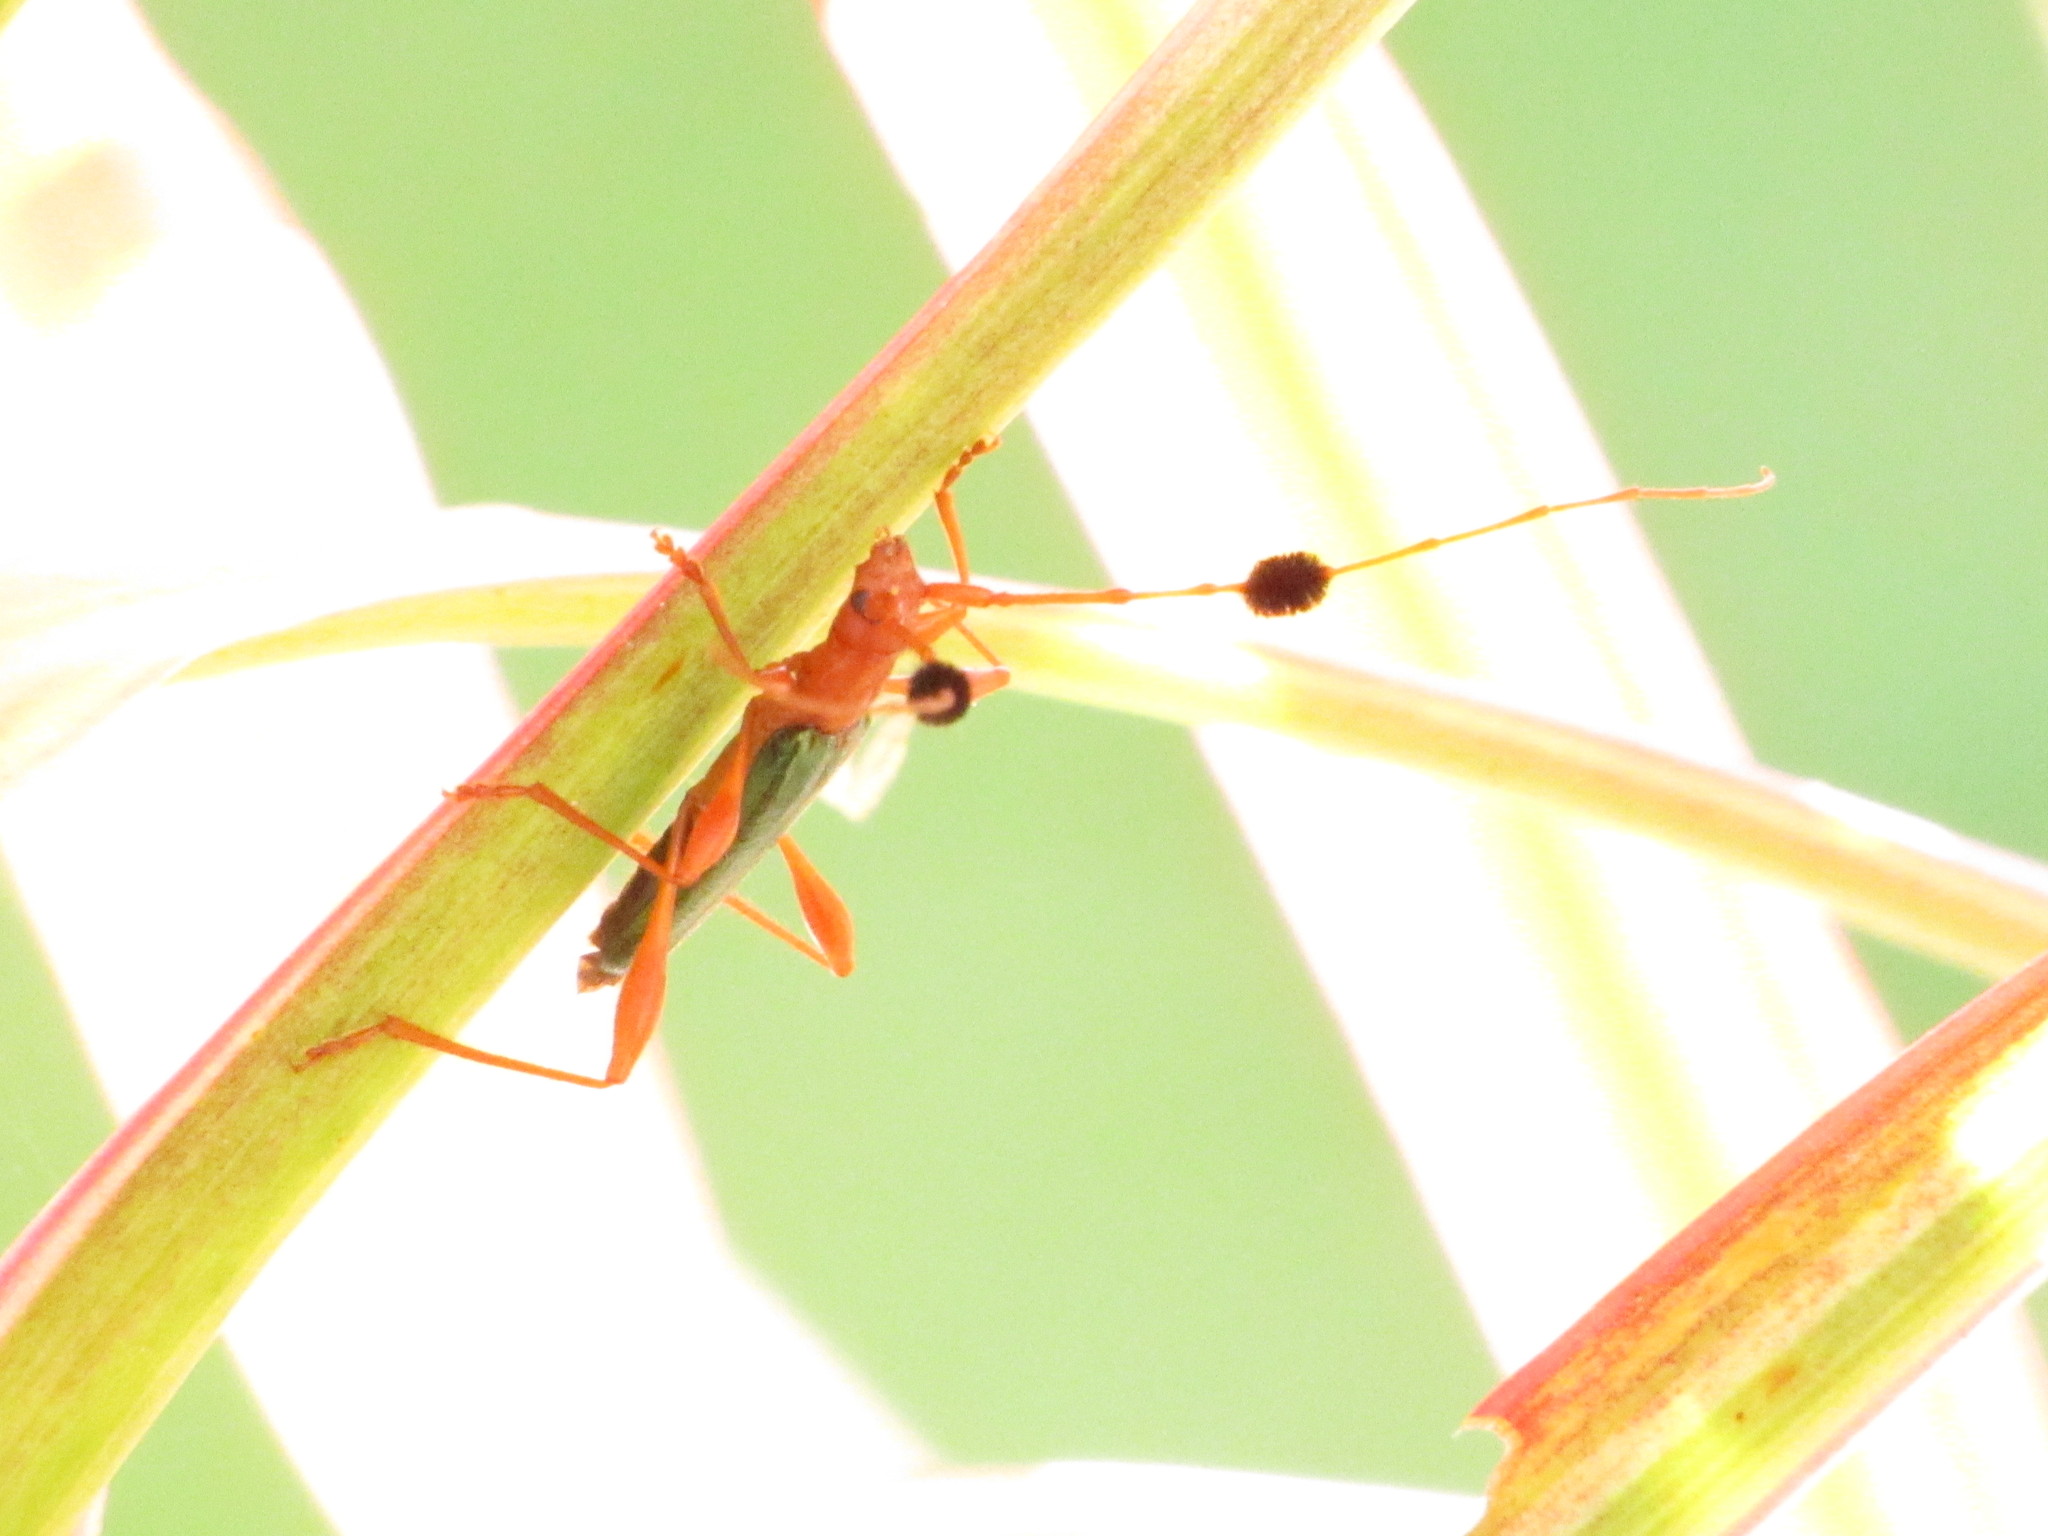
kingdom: Animalia
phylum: Arthropoda
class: Insecta
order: Coleoptera
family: Cerambycidae
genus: Unxia
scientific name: Unxia gracilior
